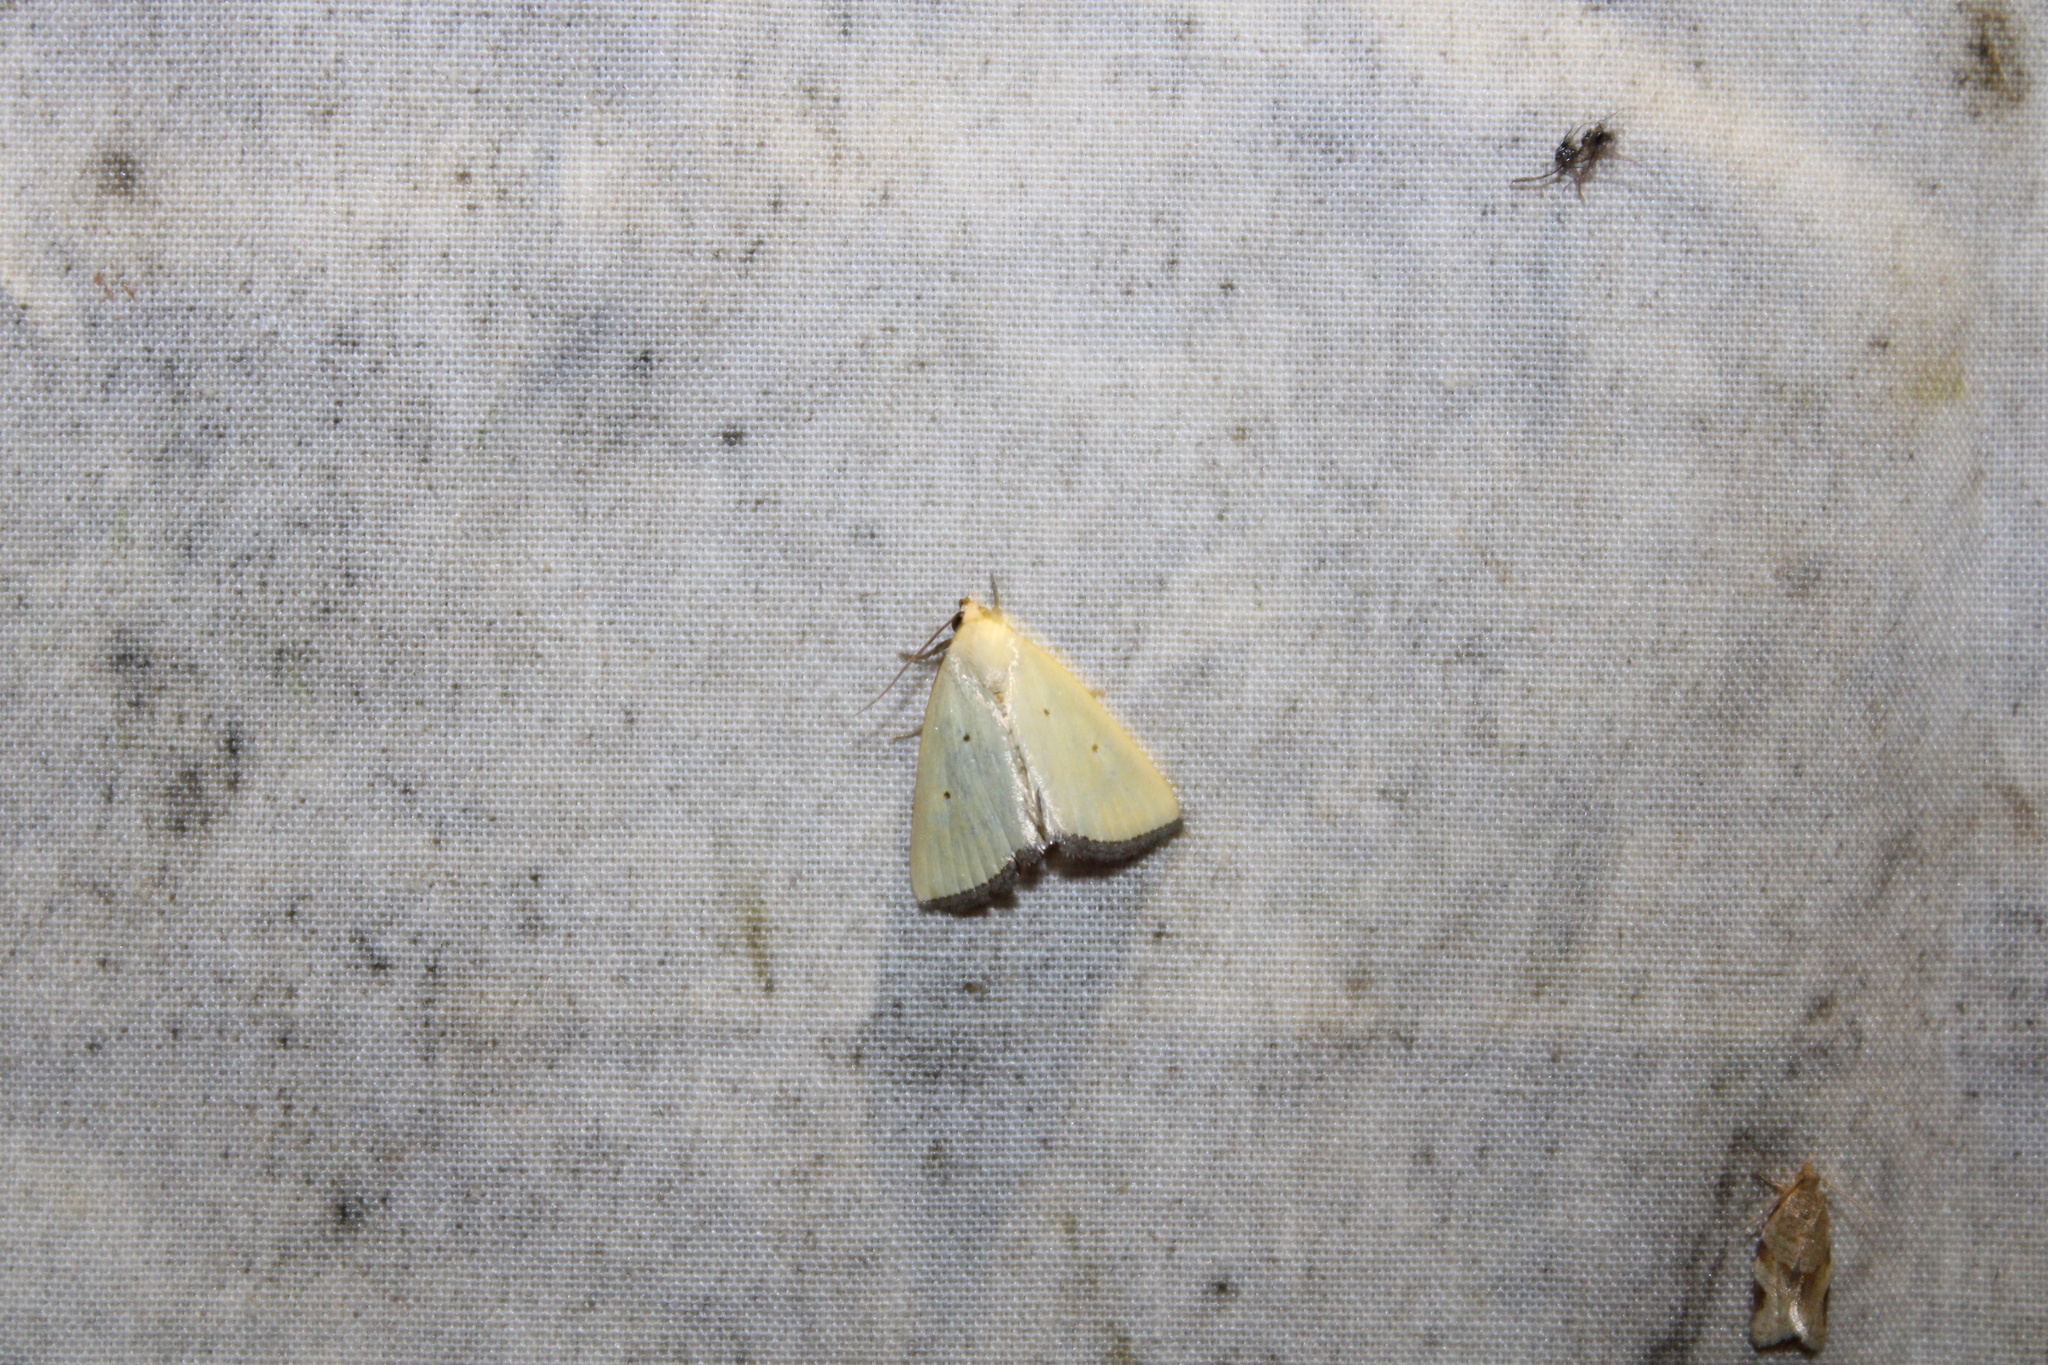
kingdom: Animalia
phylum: Arthropoda
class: Insecta
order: Lepidoptera
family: Noctuidae
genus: Marimatha
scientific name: Marimatha nigrofimbria
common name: Black-bordered lemon moth
